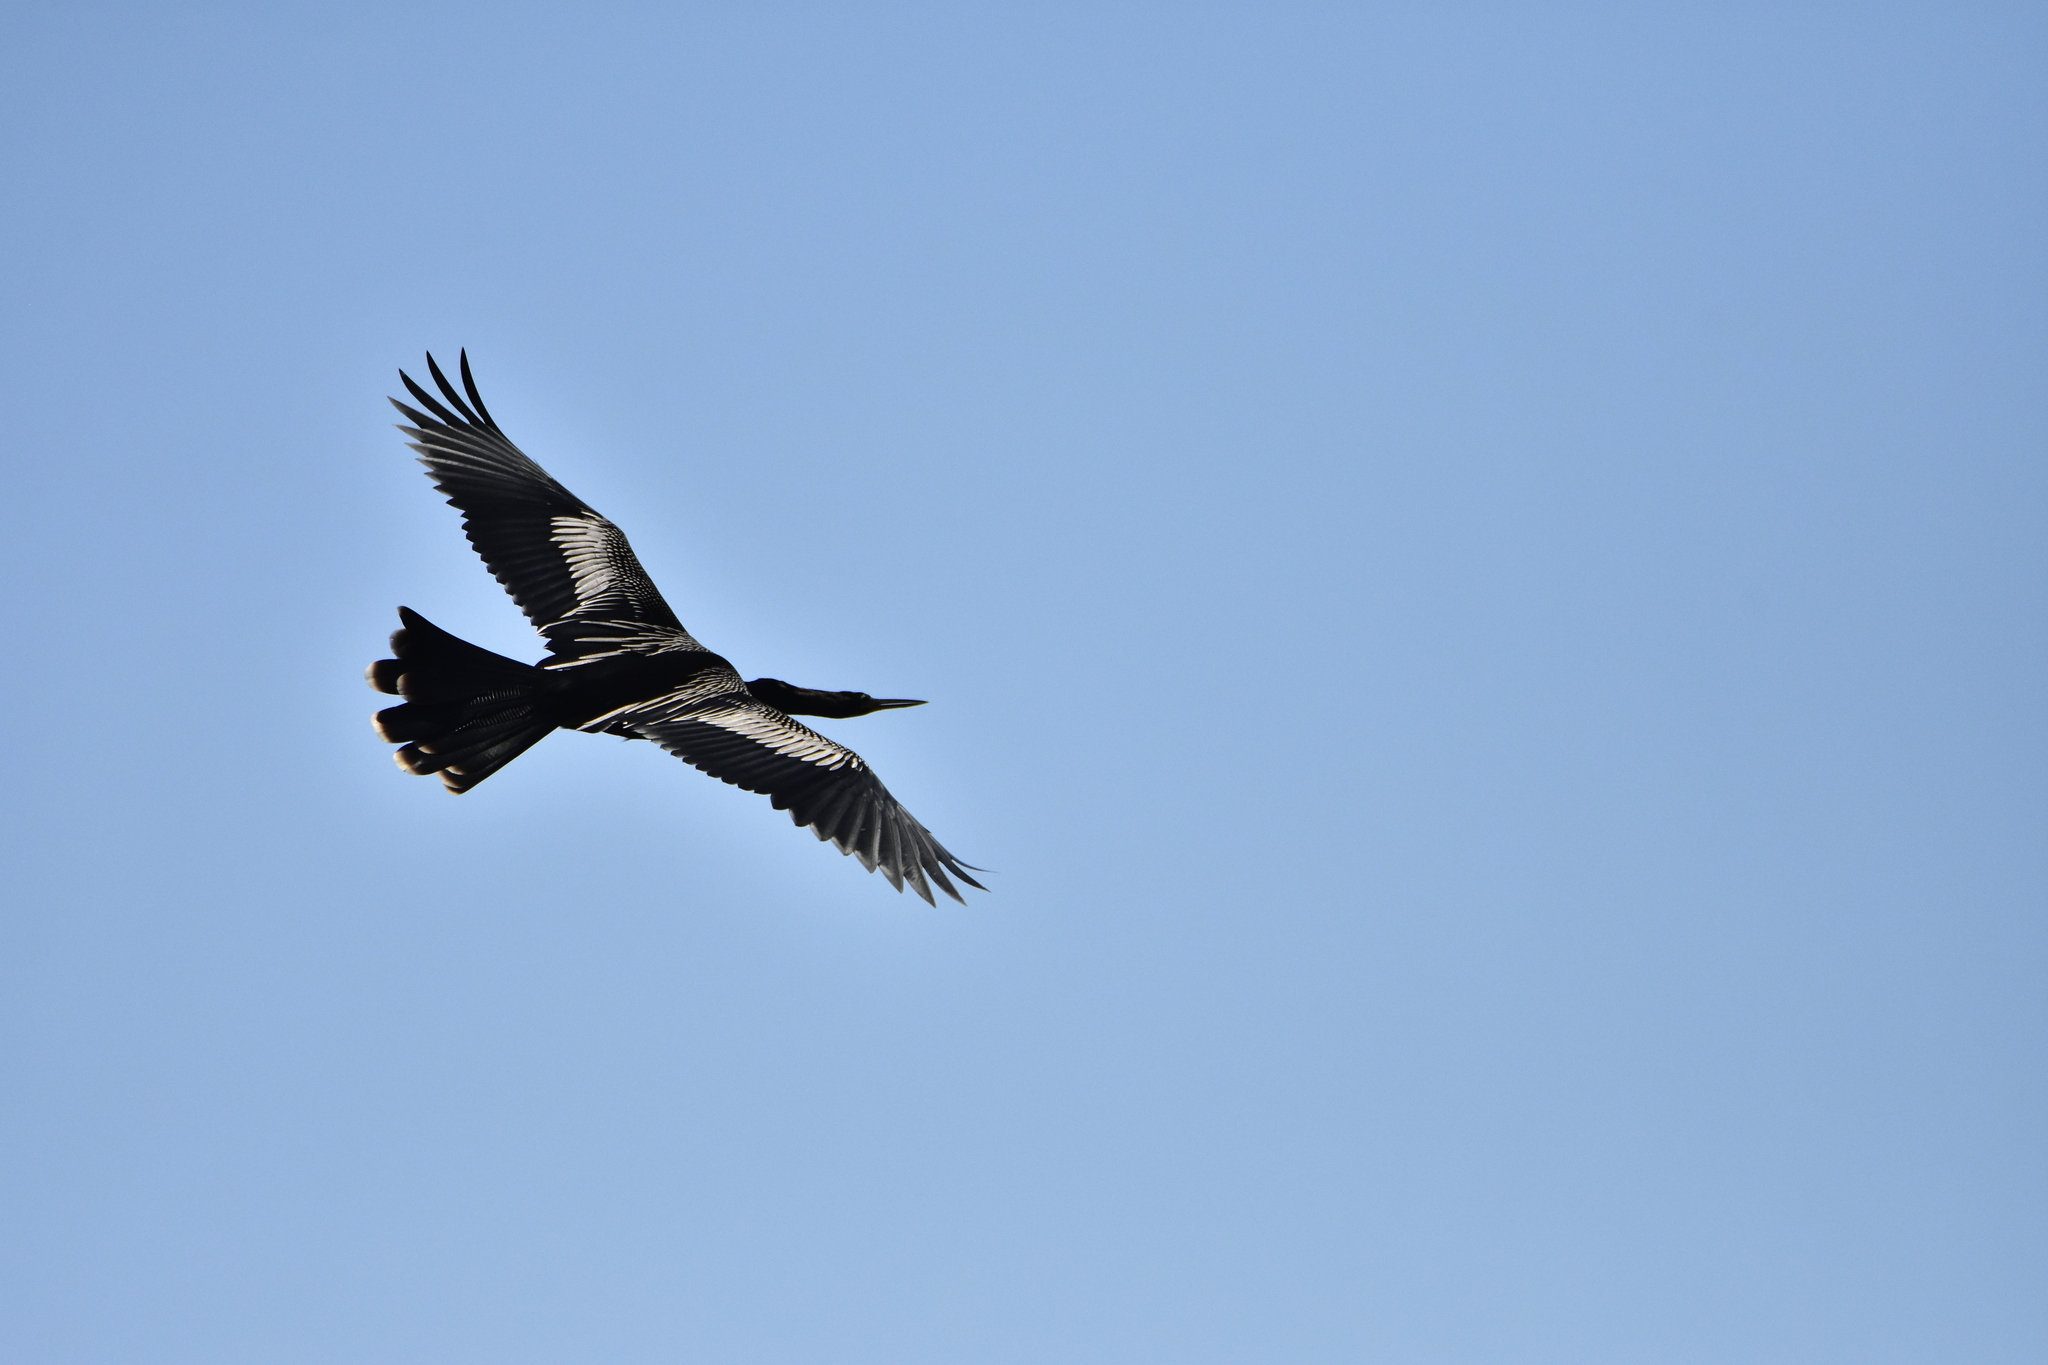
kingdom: Animalia
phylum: Chordata
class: Aves
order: Suliformes
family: Anhingidae
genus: Anhinga
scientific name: Anhinga anhinga
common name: Anhinga
